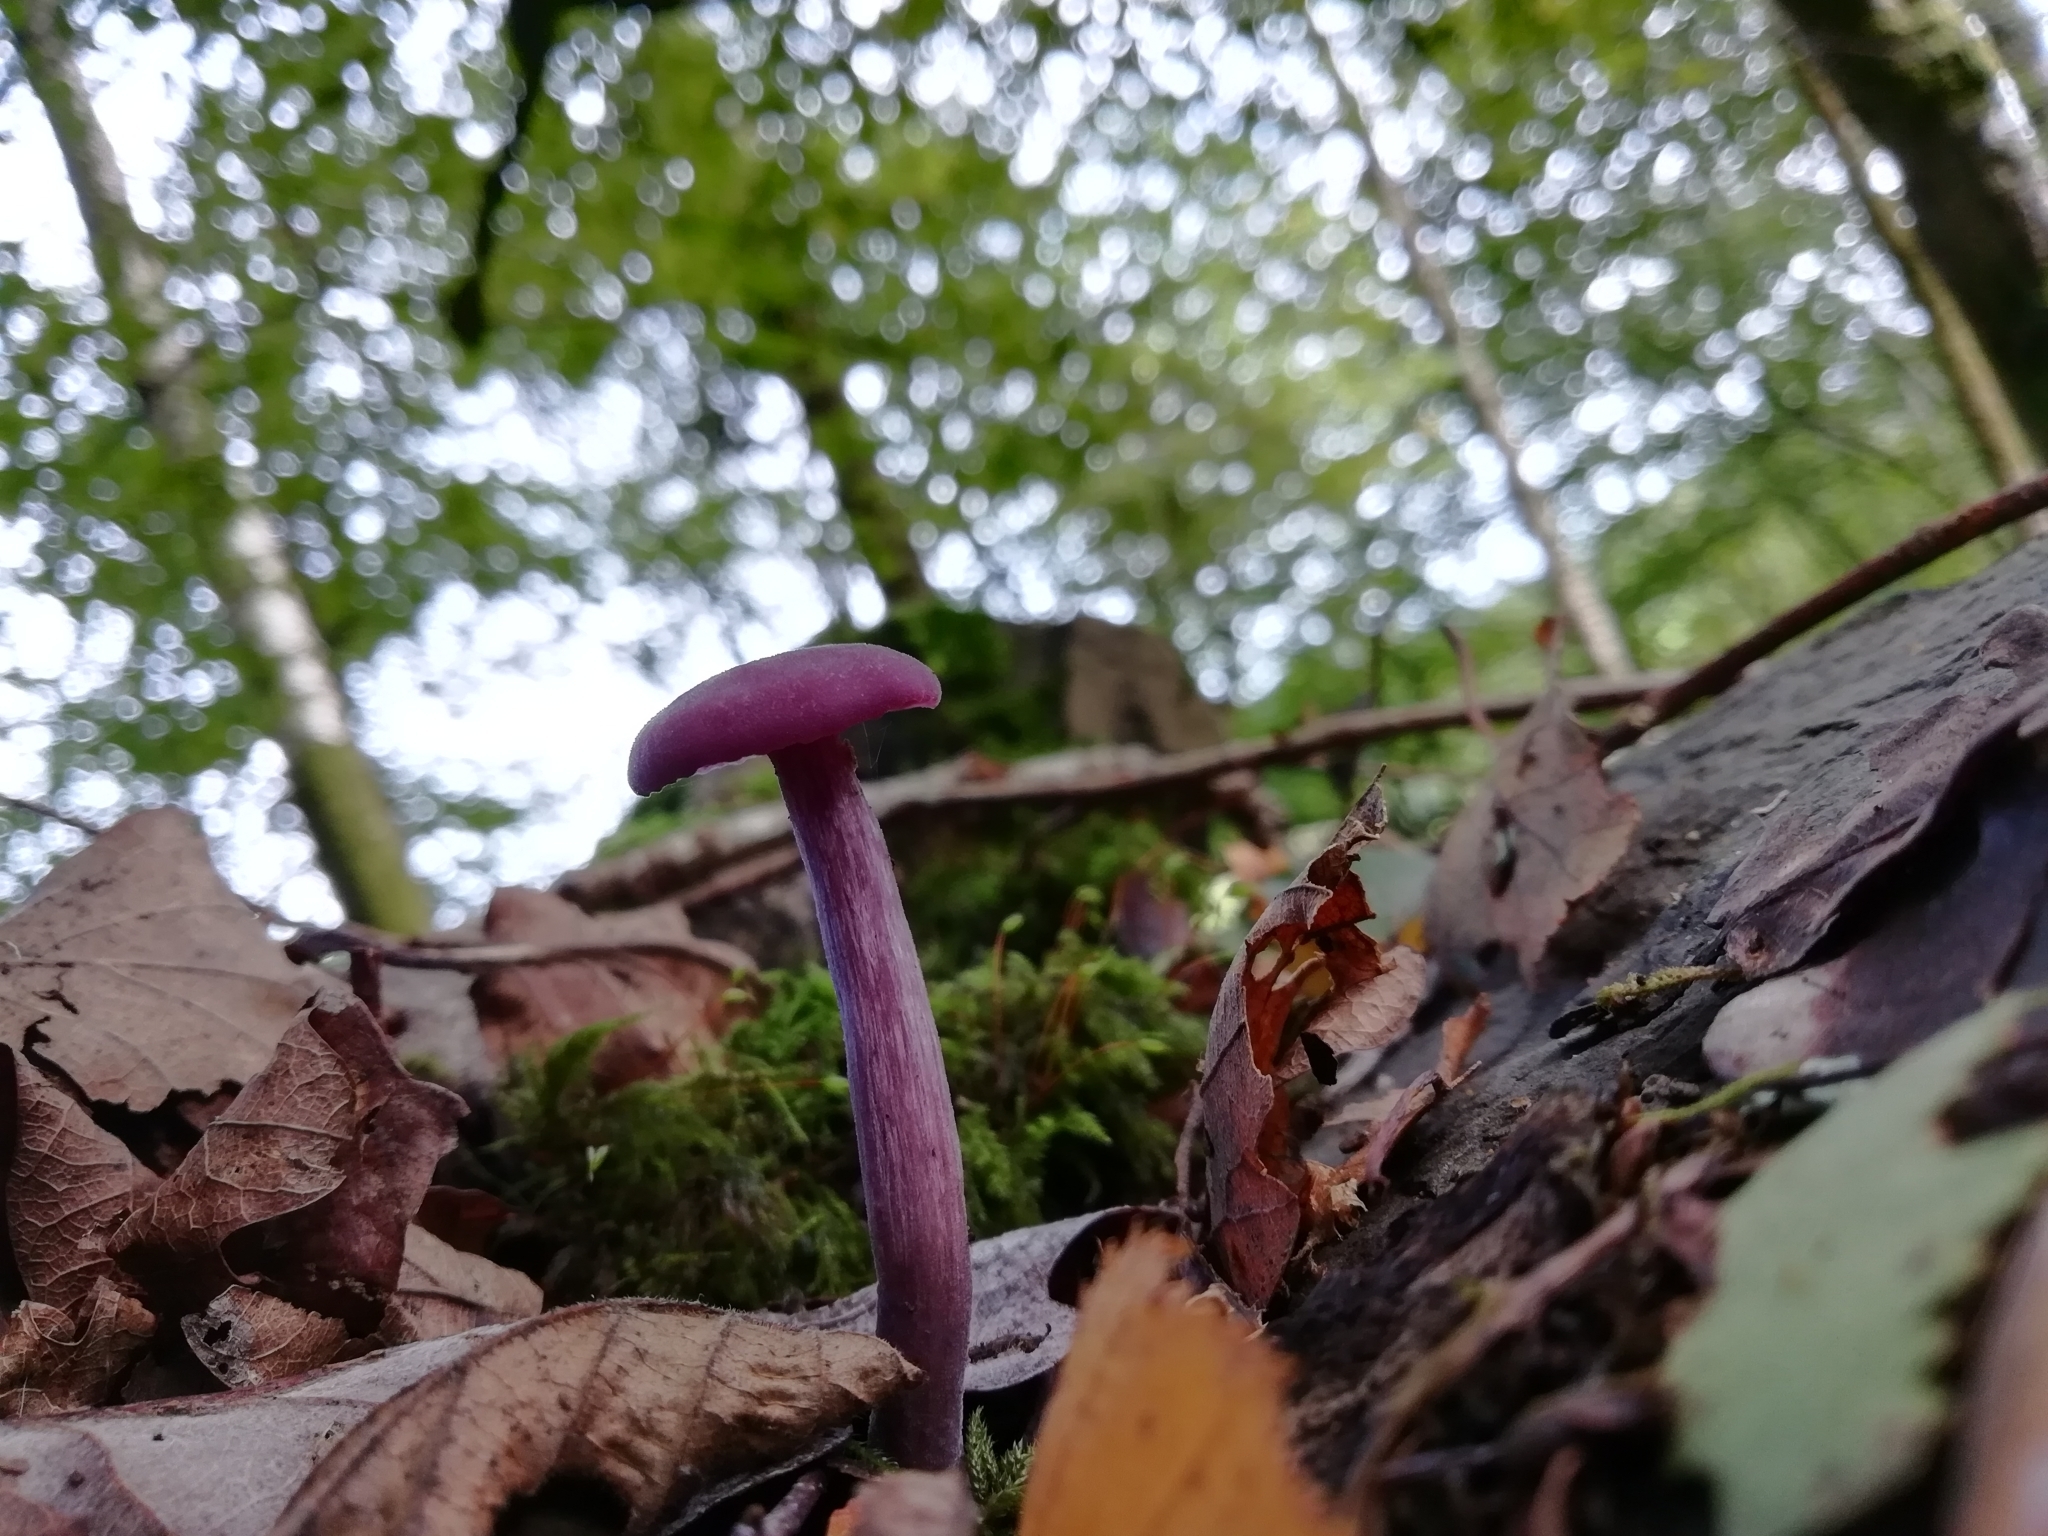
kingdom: Fungi
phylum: Basidiomycota
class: Agaricomycetes
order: Agaricales
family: Hydnangiaceae
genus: Laccaria
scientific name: Laccaria amethystina
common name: Amethyst deceiver
